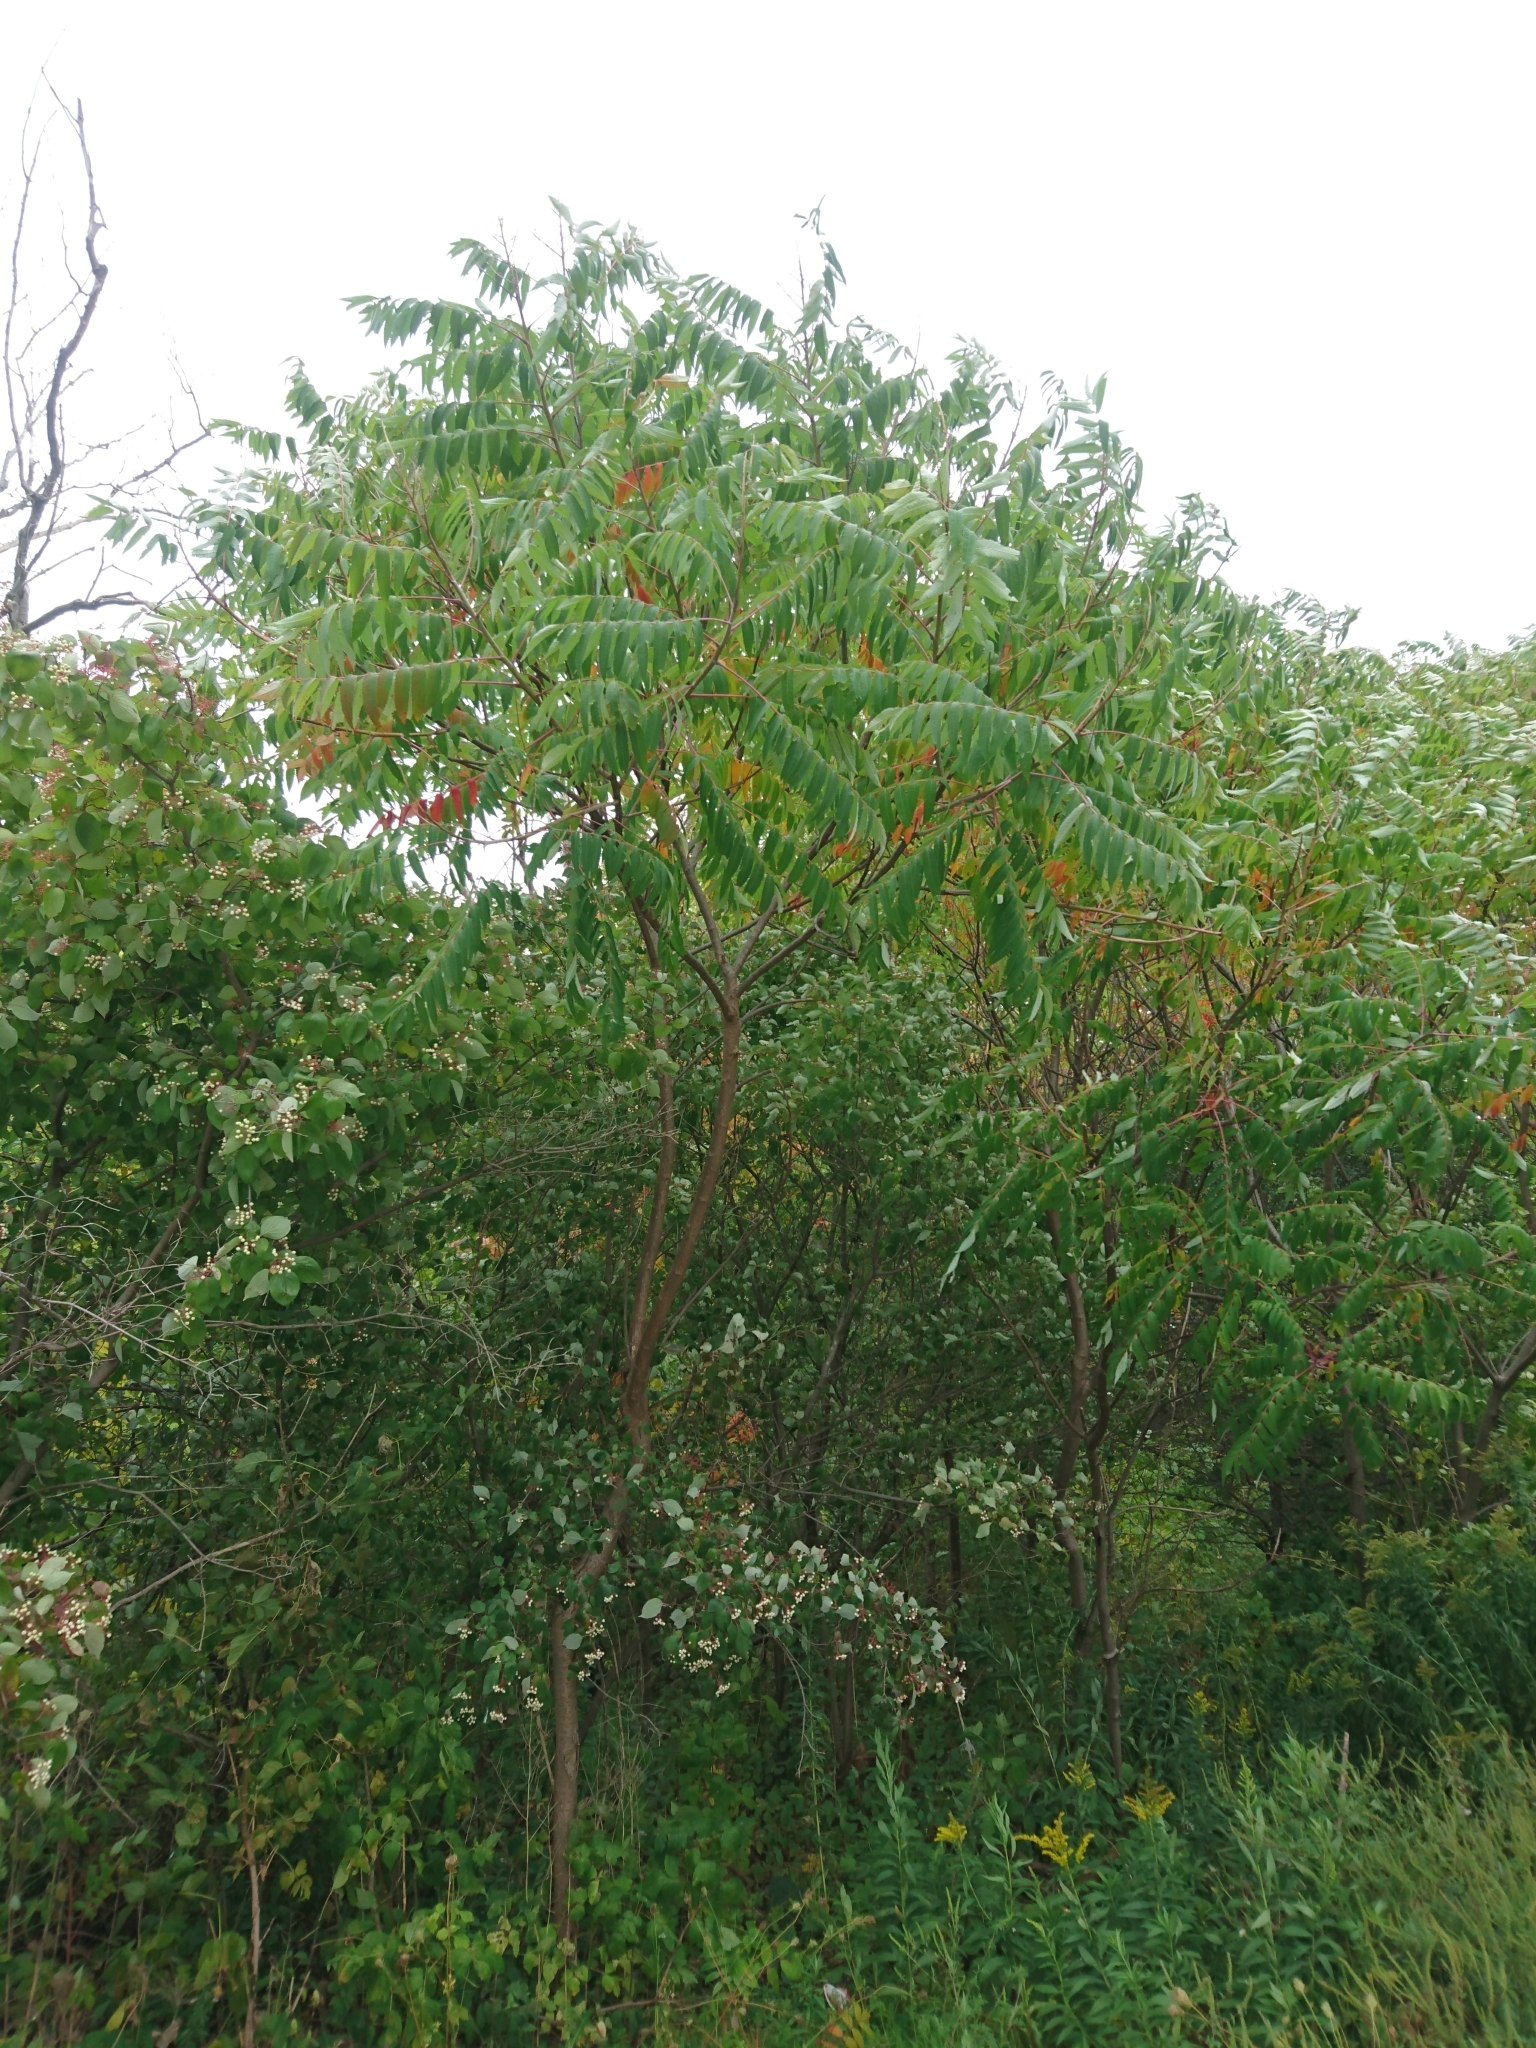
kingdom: Plantae
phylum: Tracheophyta
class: Magnoliopsida
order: Sapindales
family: Anacardiaceae
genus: Rhus
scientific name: Rhus typhina
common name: Staghorn sumac
